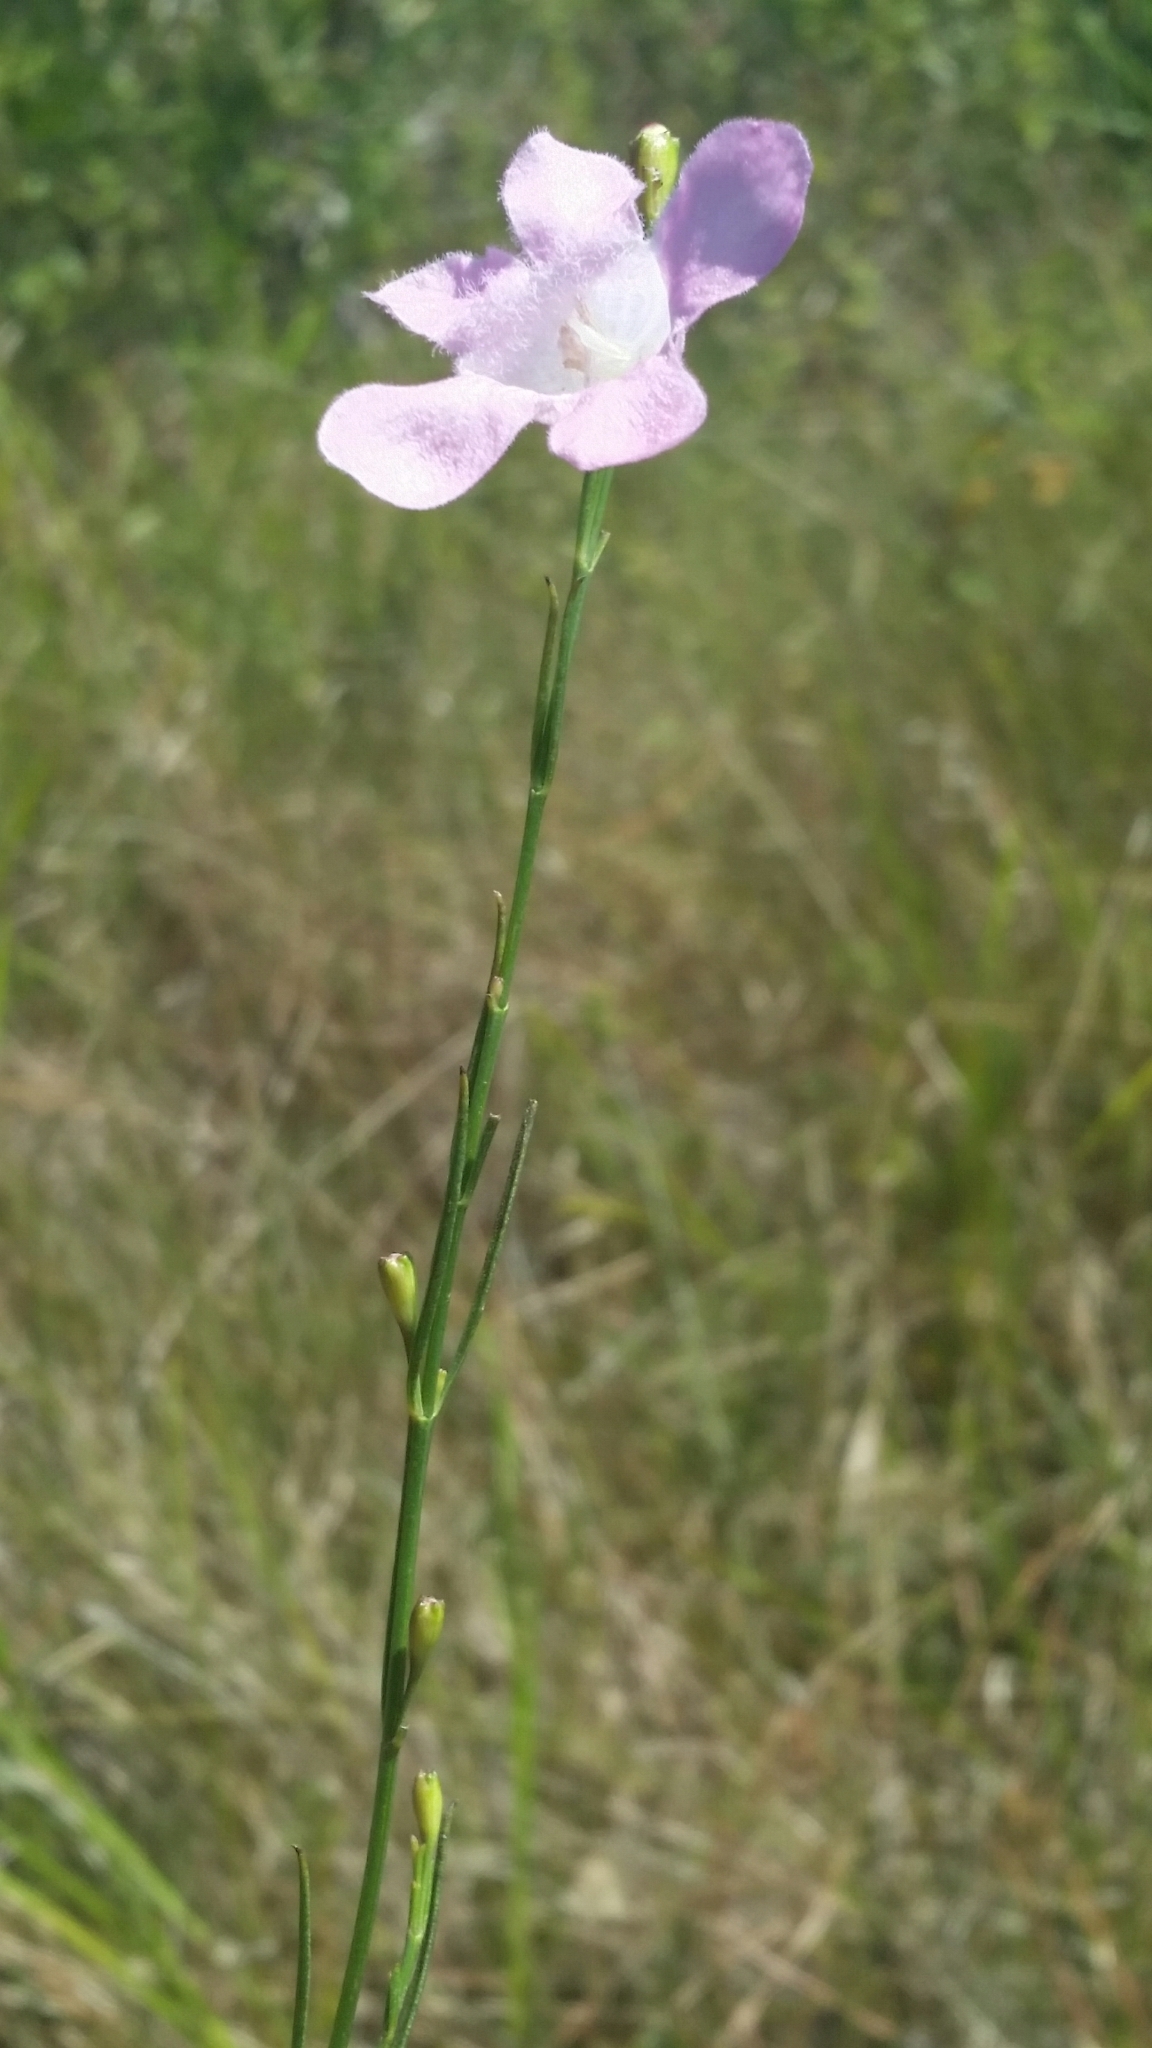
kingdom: Plantae
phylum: Tracheophyta
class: Magnoliopsida
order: Lamiales
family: Orobanchaceae
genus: Agalinis
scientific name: Agalinis linifolia
